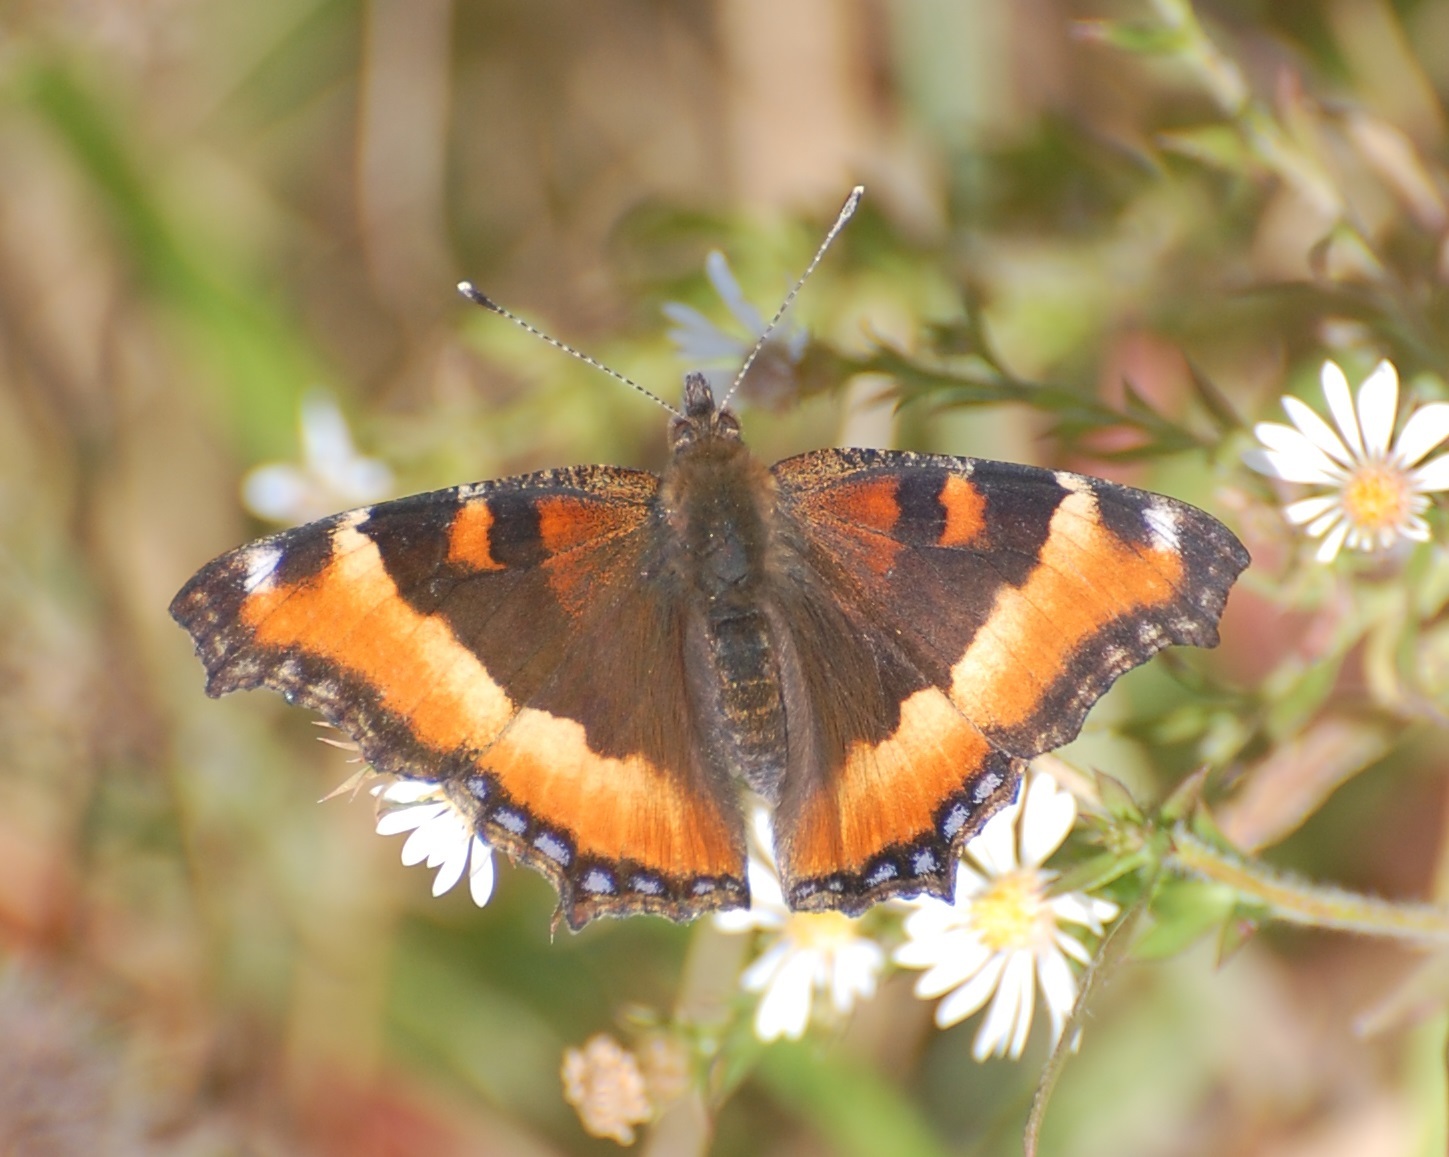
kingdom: Animalia
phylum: Arthropoda
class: Insecta
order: Lepidoptera
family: Nymphalidae
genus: Aglais
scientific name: Aglais milberti
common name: Milbert's tortoiseshell
